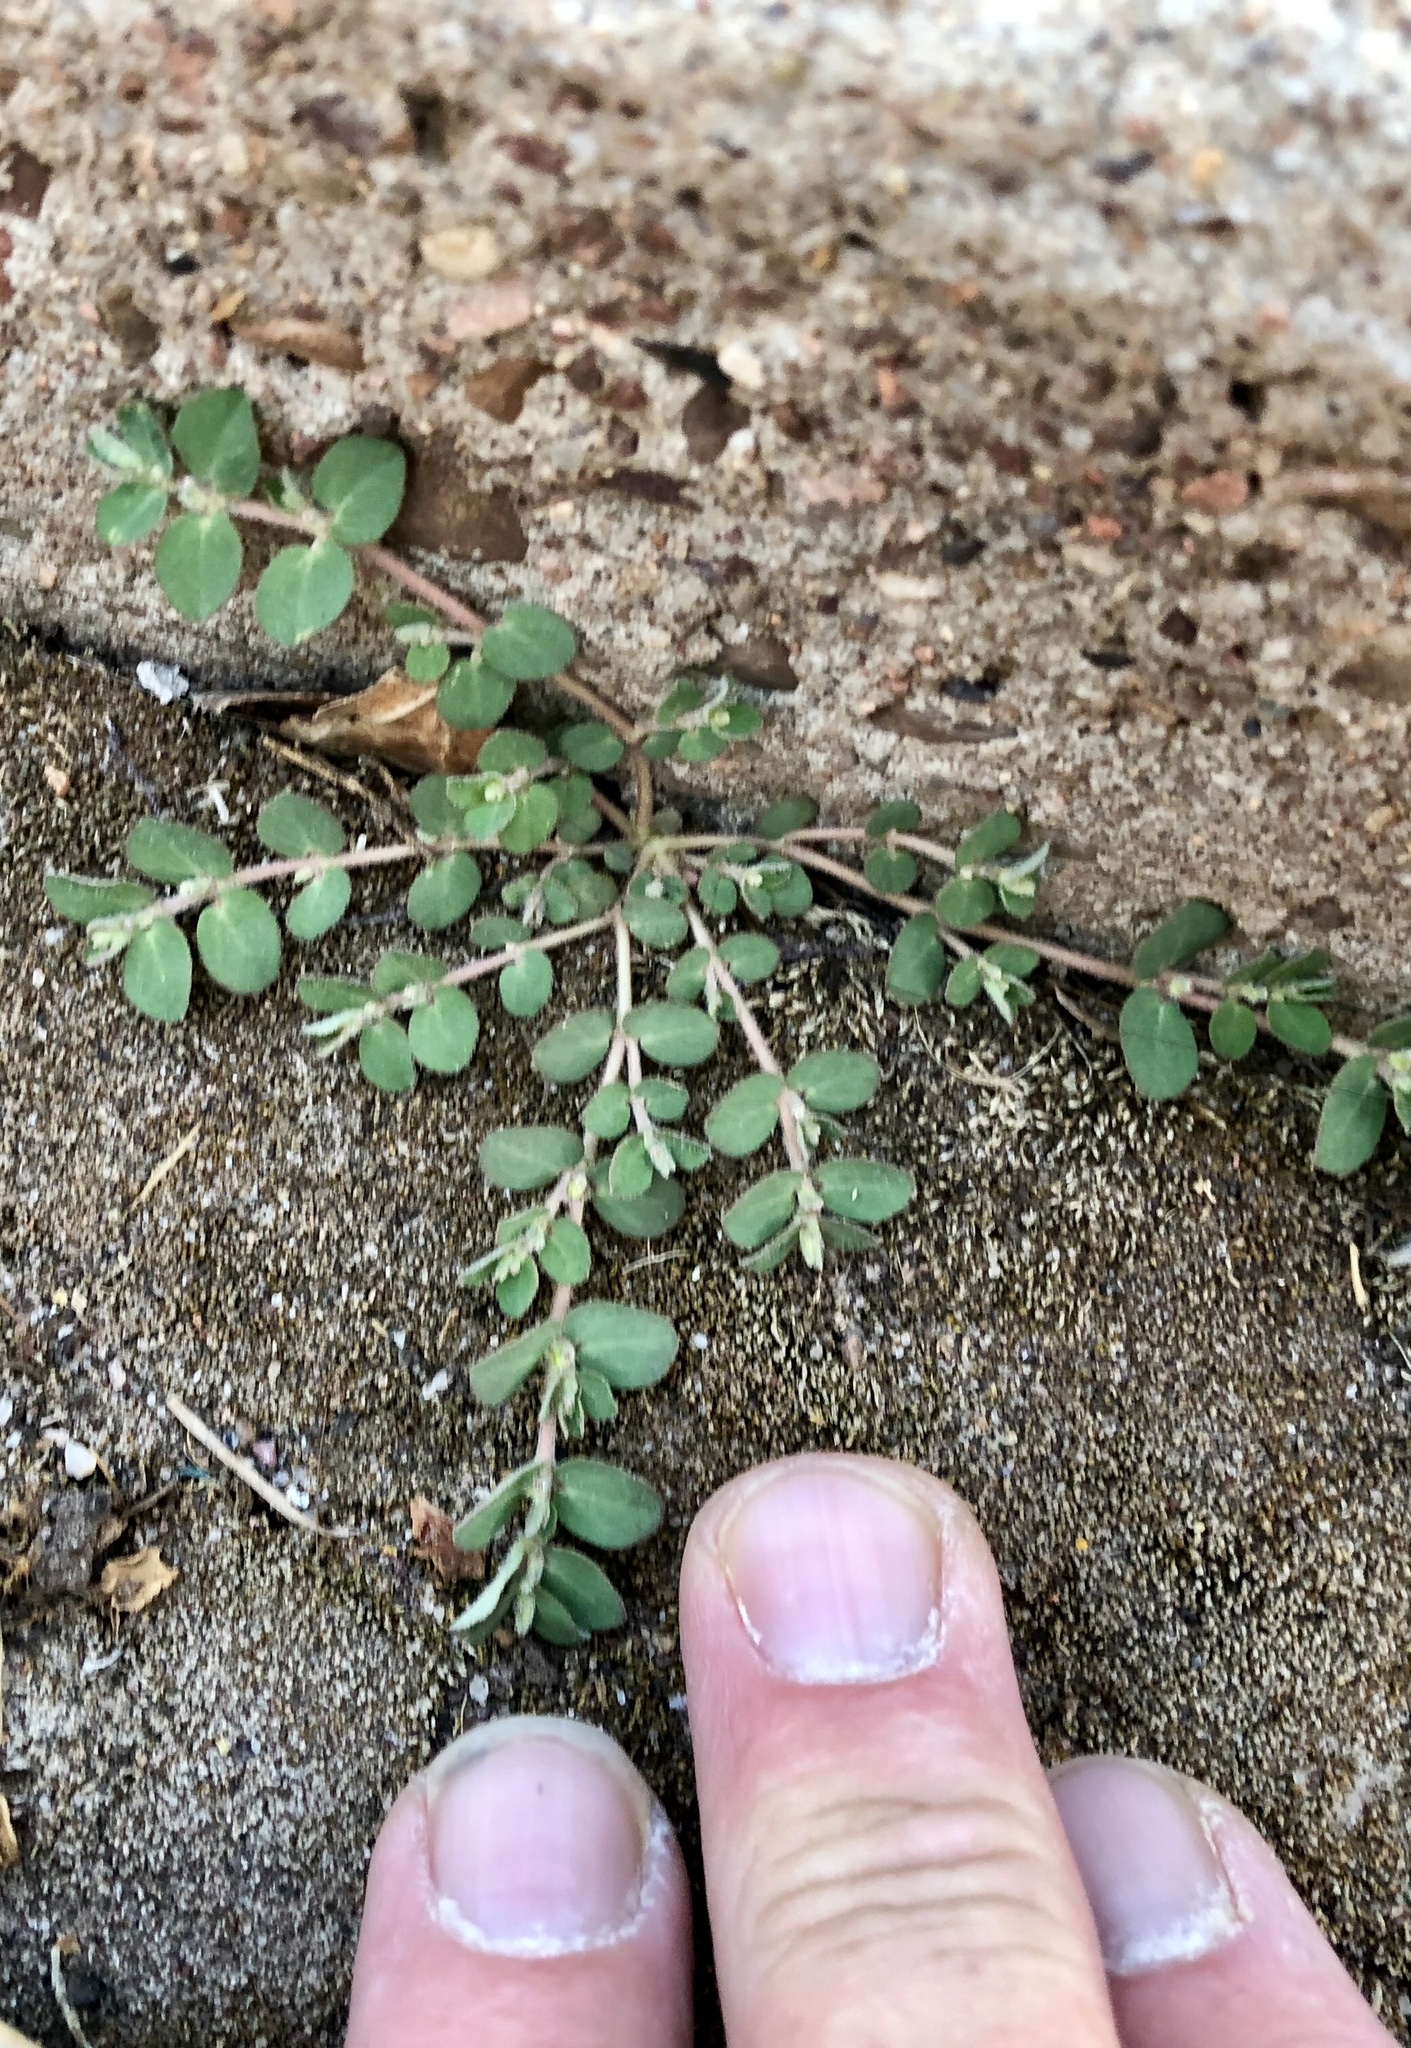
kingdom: Plantae
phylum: Tracheophyta
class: Magnoliopsida
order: Malpighiales
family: Euphorbiaceae
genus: Euphorbia
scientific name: Euphorbia prostrata
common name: Prostrate sandmat
